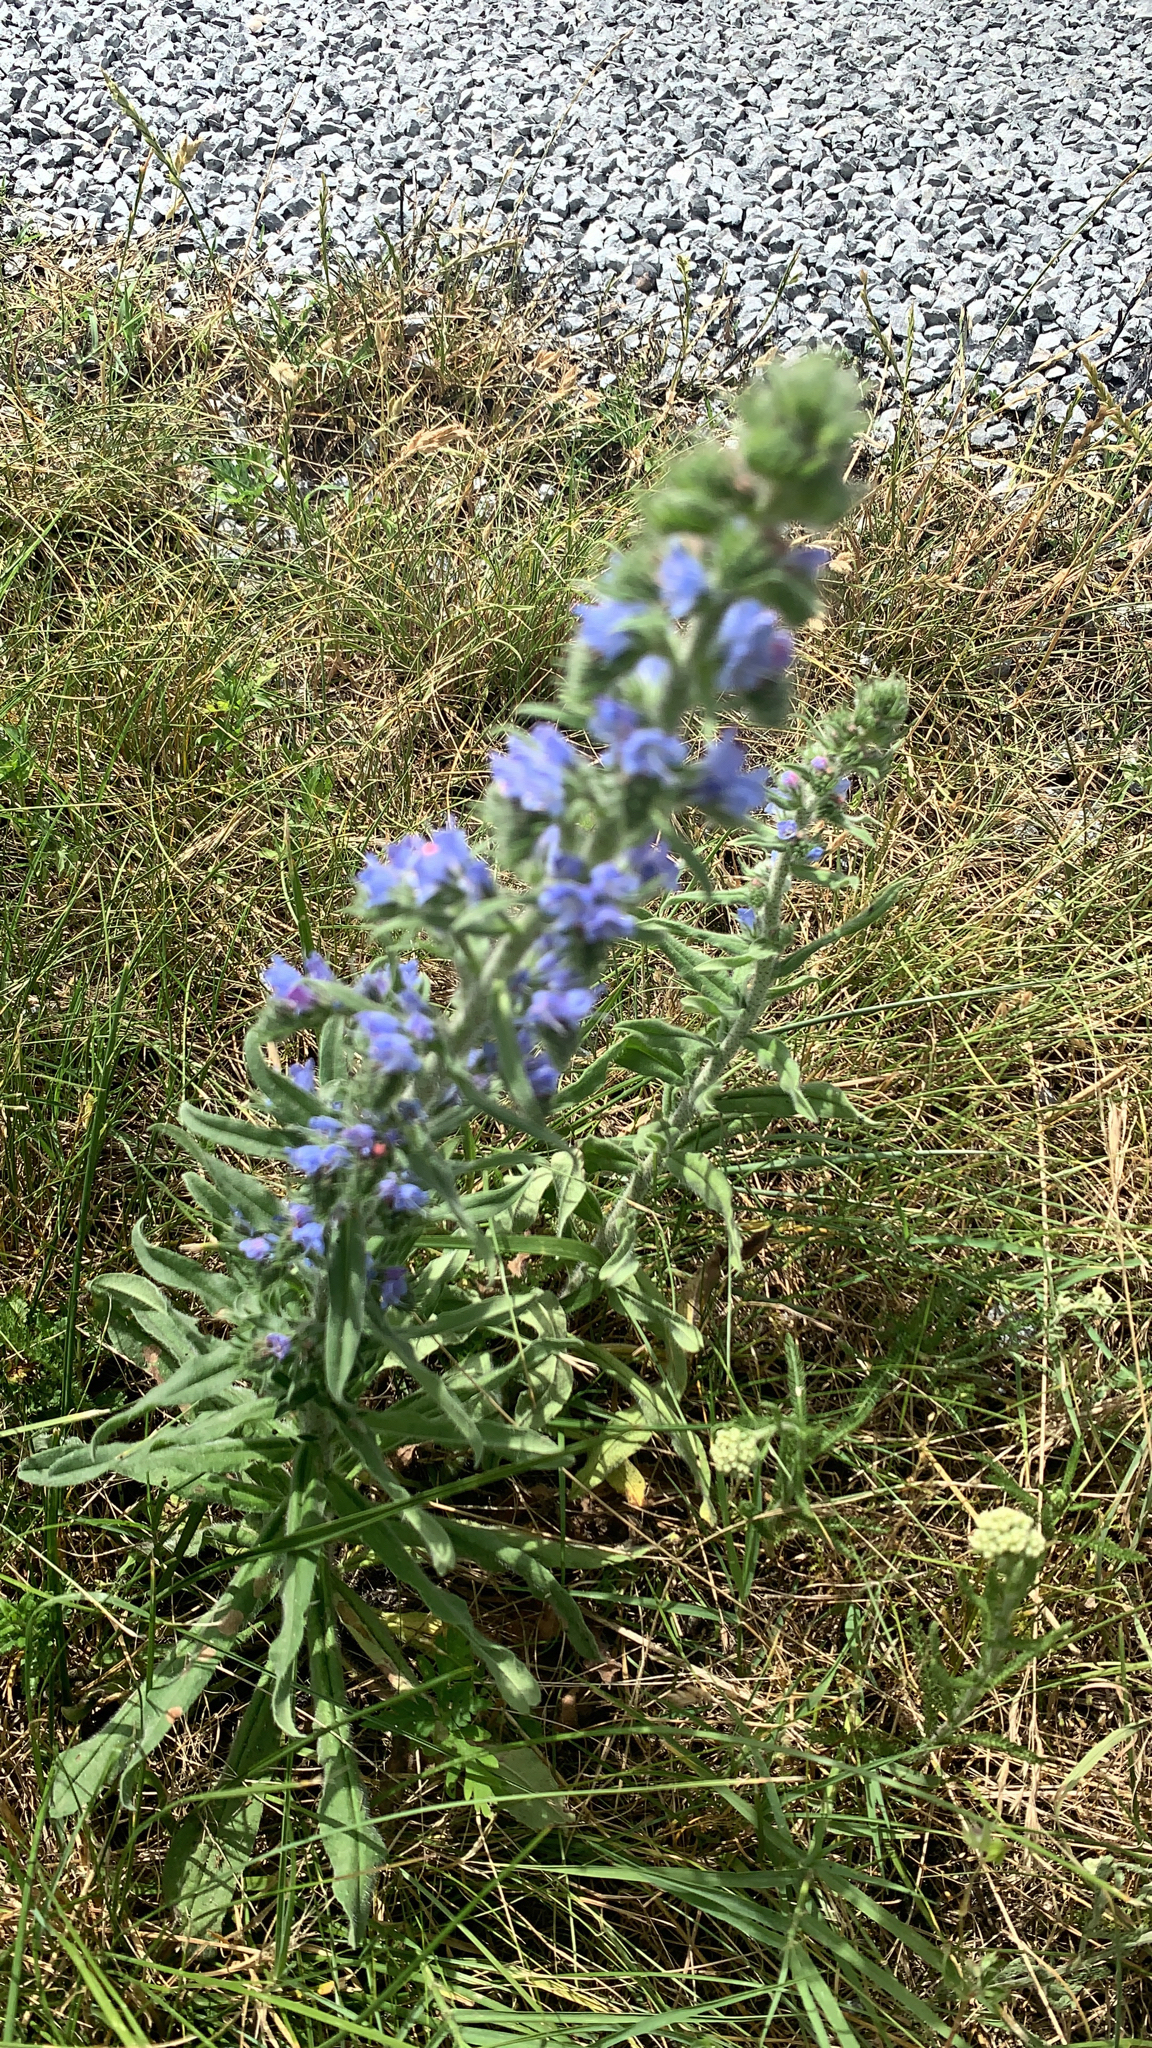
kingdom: Plantae
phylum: Tracheophyta
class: Magnoliopsida
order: Boraginales
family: Boraginaceae
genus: Echium
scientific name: Echium vulgare
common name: Common viper's bugloss
